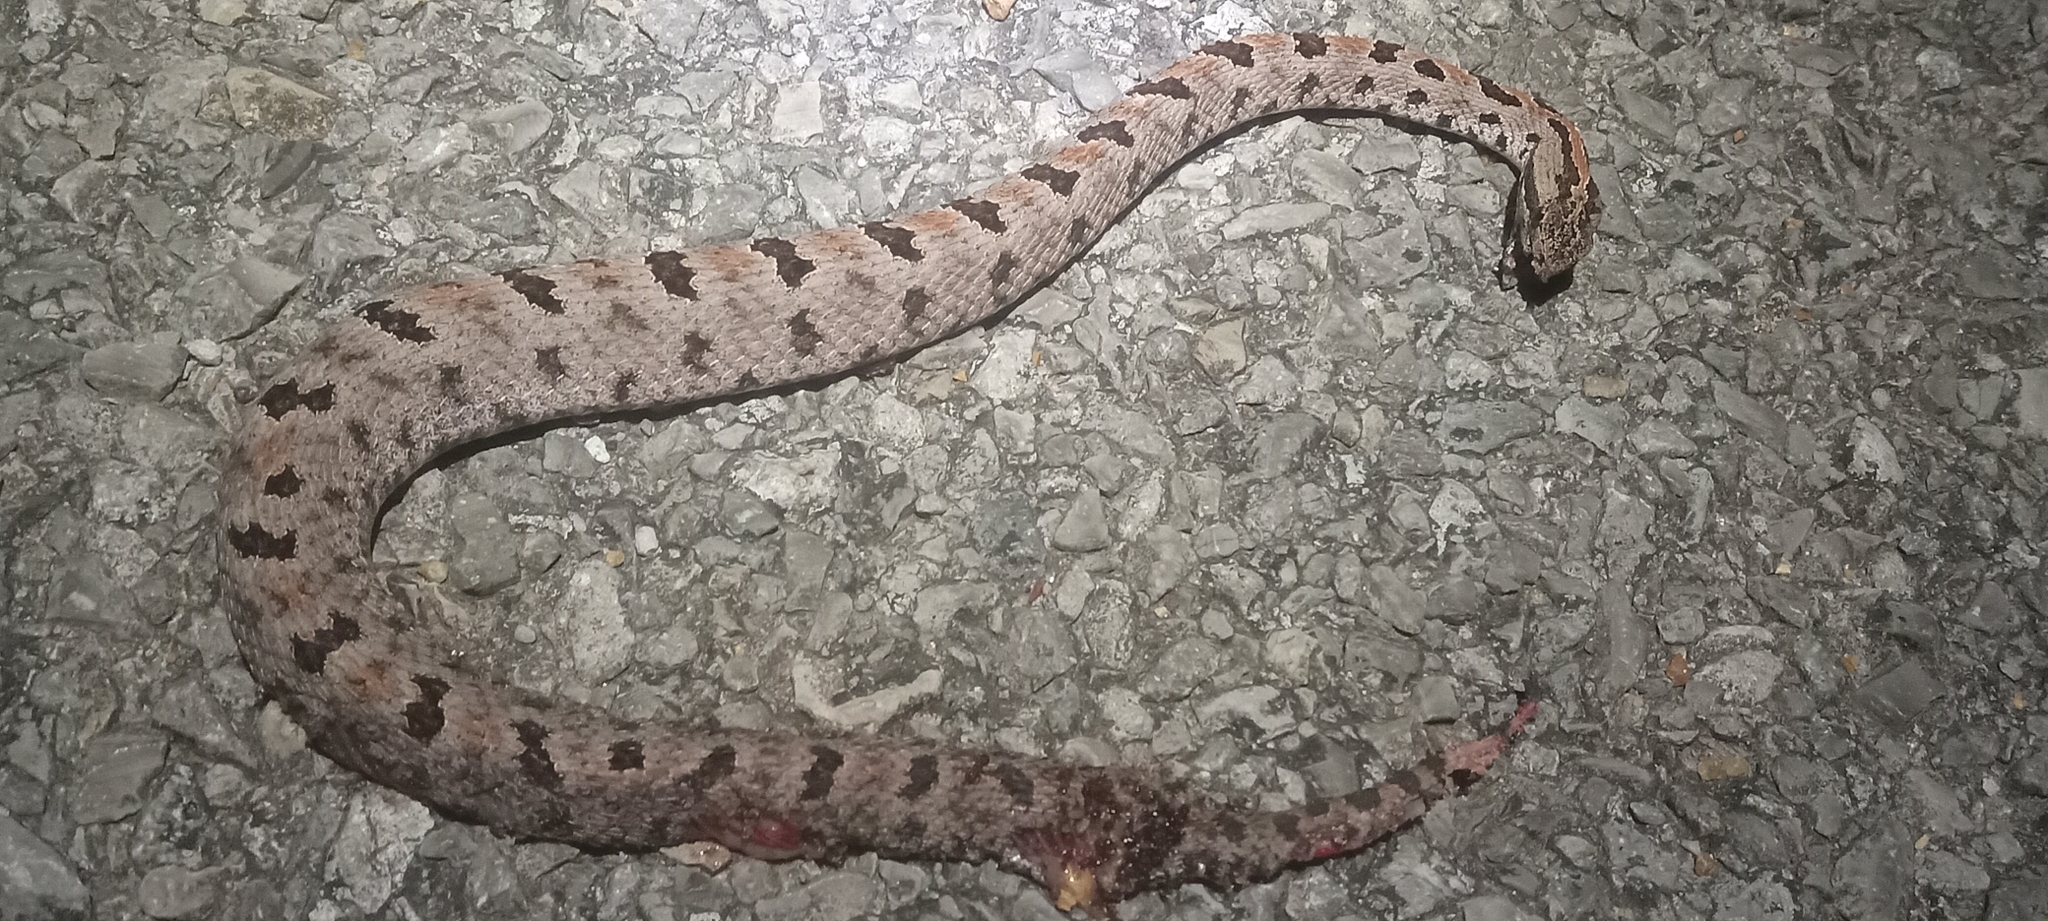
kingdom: Animalia
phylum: Chordata
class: Squamata
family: Viperidae
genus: Sistrurus
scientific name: Sistrurus miliarius
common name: Pygmy rattlesnake
